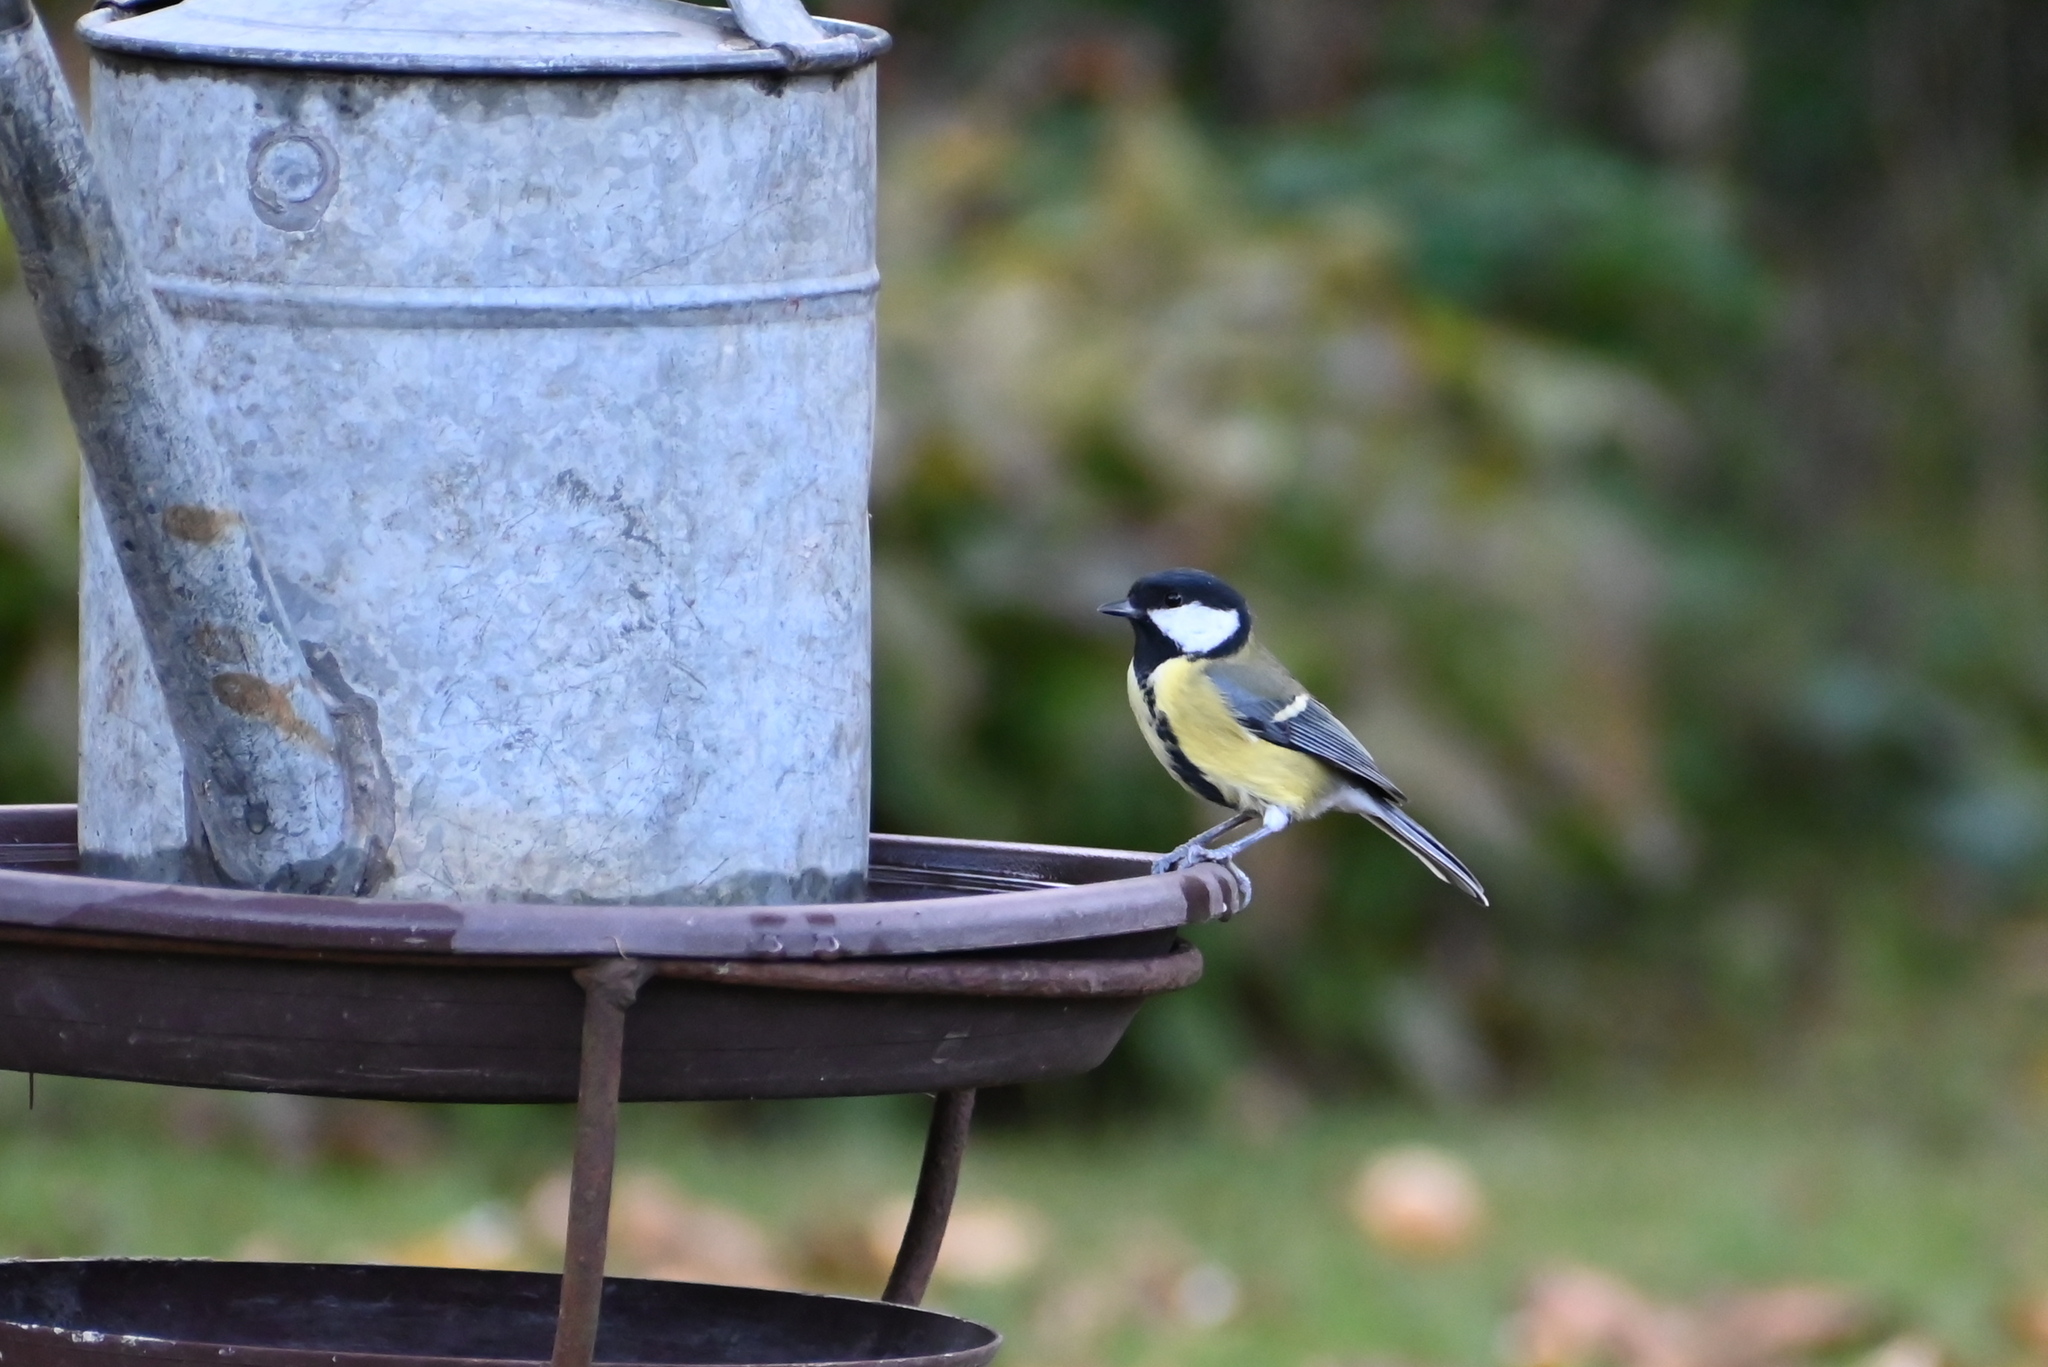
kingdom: Animalia
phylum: Chordata
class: Aves
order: Passeriformes
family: Paridae
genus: Parus
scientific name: Parus major
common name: Great tit
